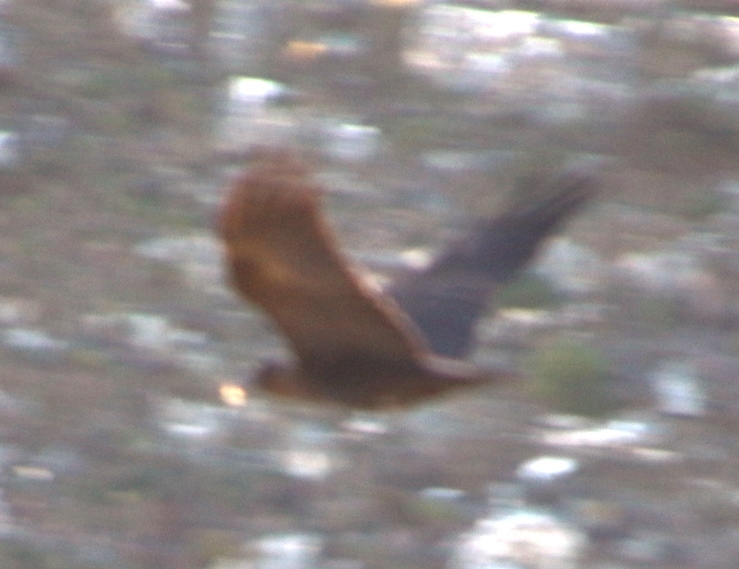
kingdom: Animalia
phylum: Chordata
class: Aves
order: Passeriformes
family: Corvidae
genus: Corvus
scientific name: Corvus albicollis
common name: White-necked raven
